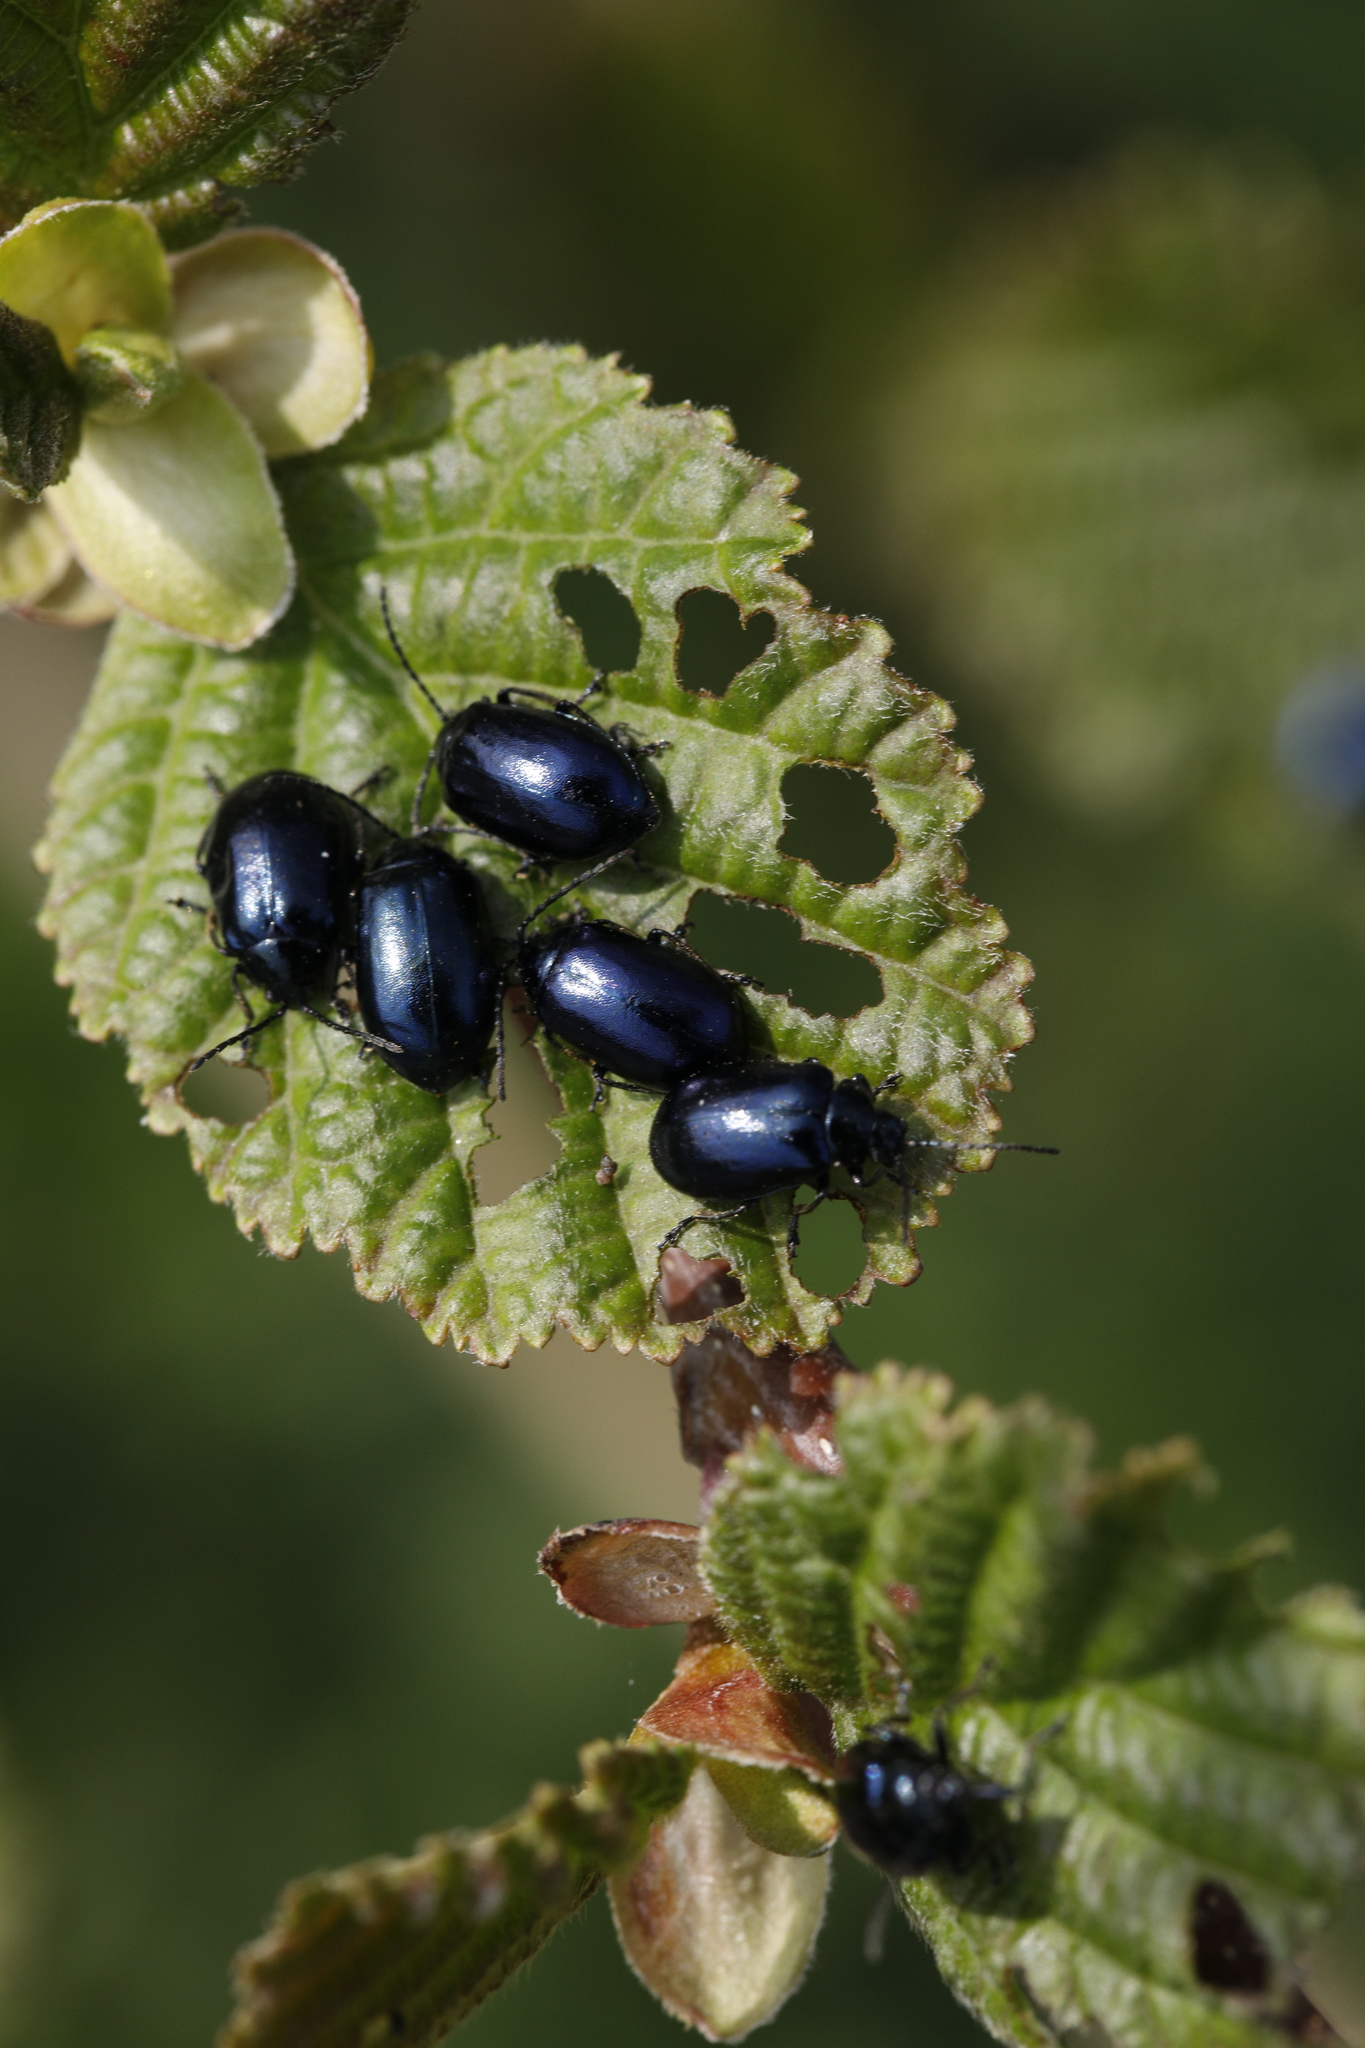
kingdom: Animalia
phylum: Arthropoda
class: Insecta
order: Coleoptera
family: Chrysomelidae
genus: Agelastica
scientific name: Agelastica alni
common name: Alder leaf beetle
